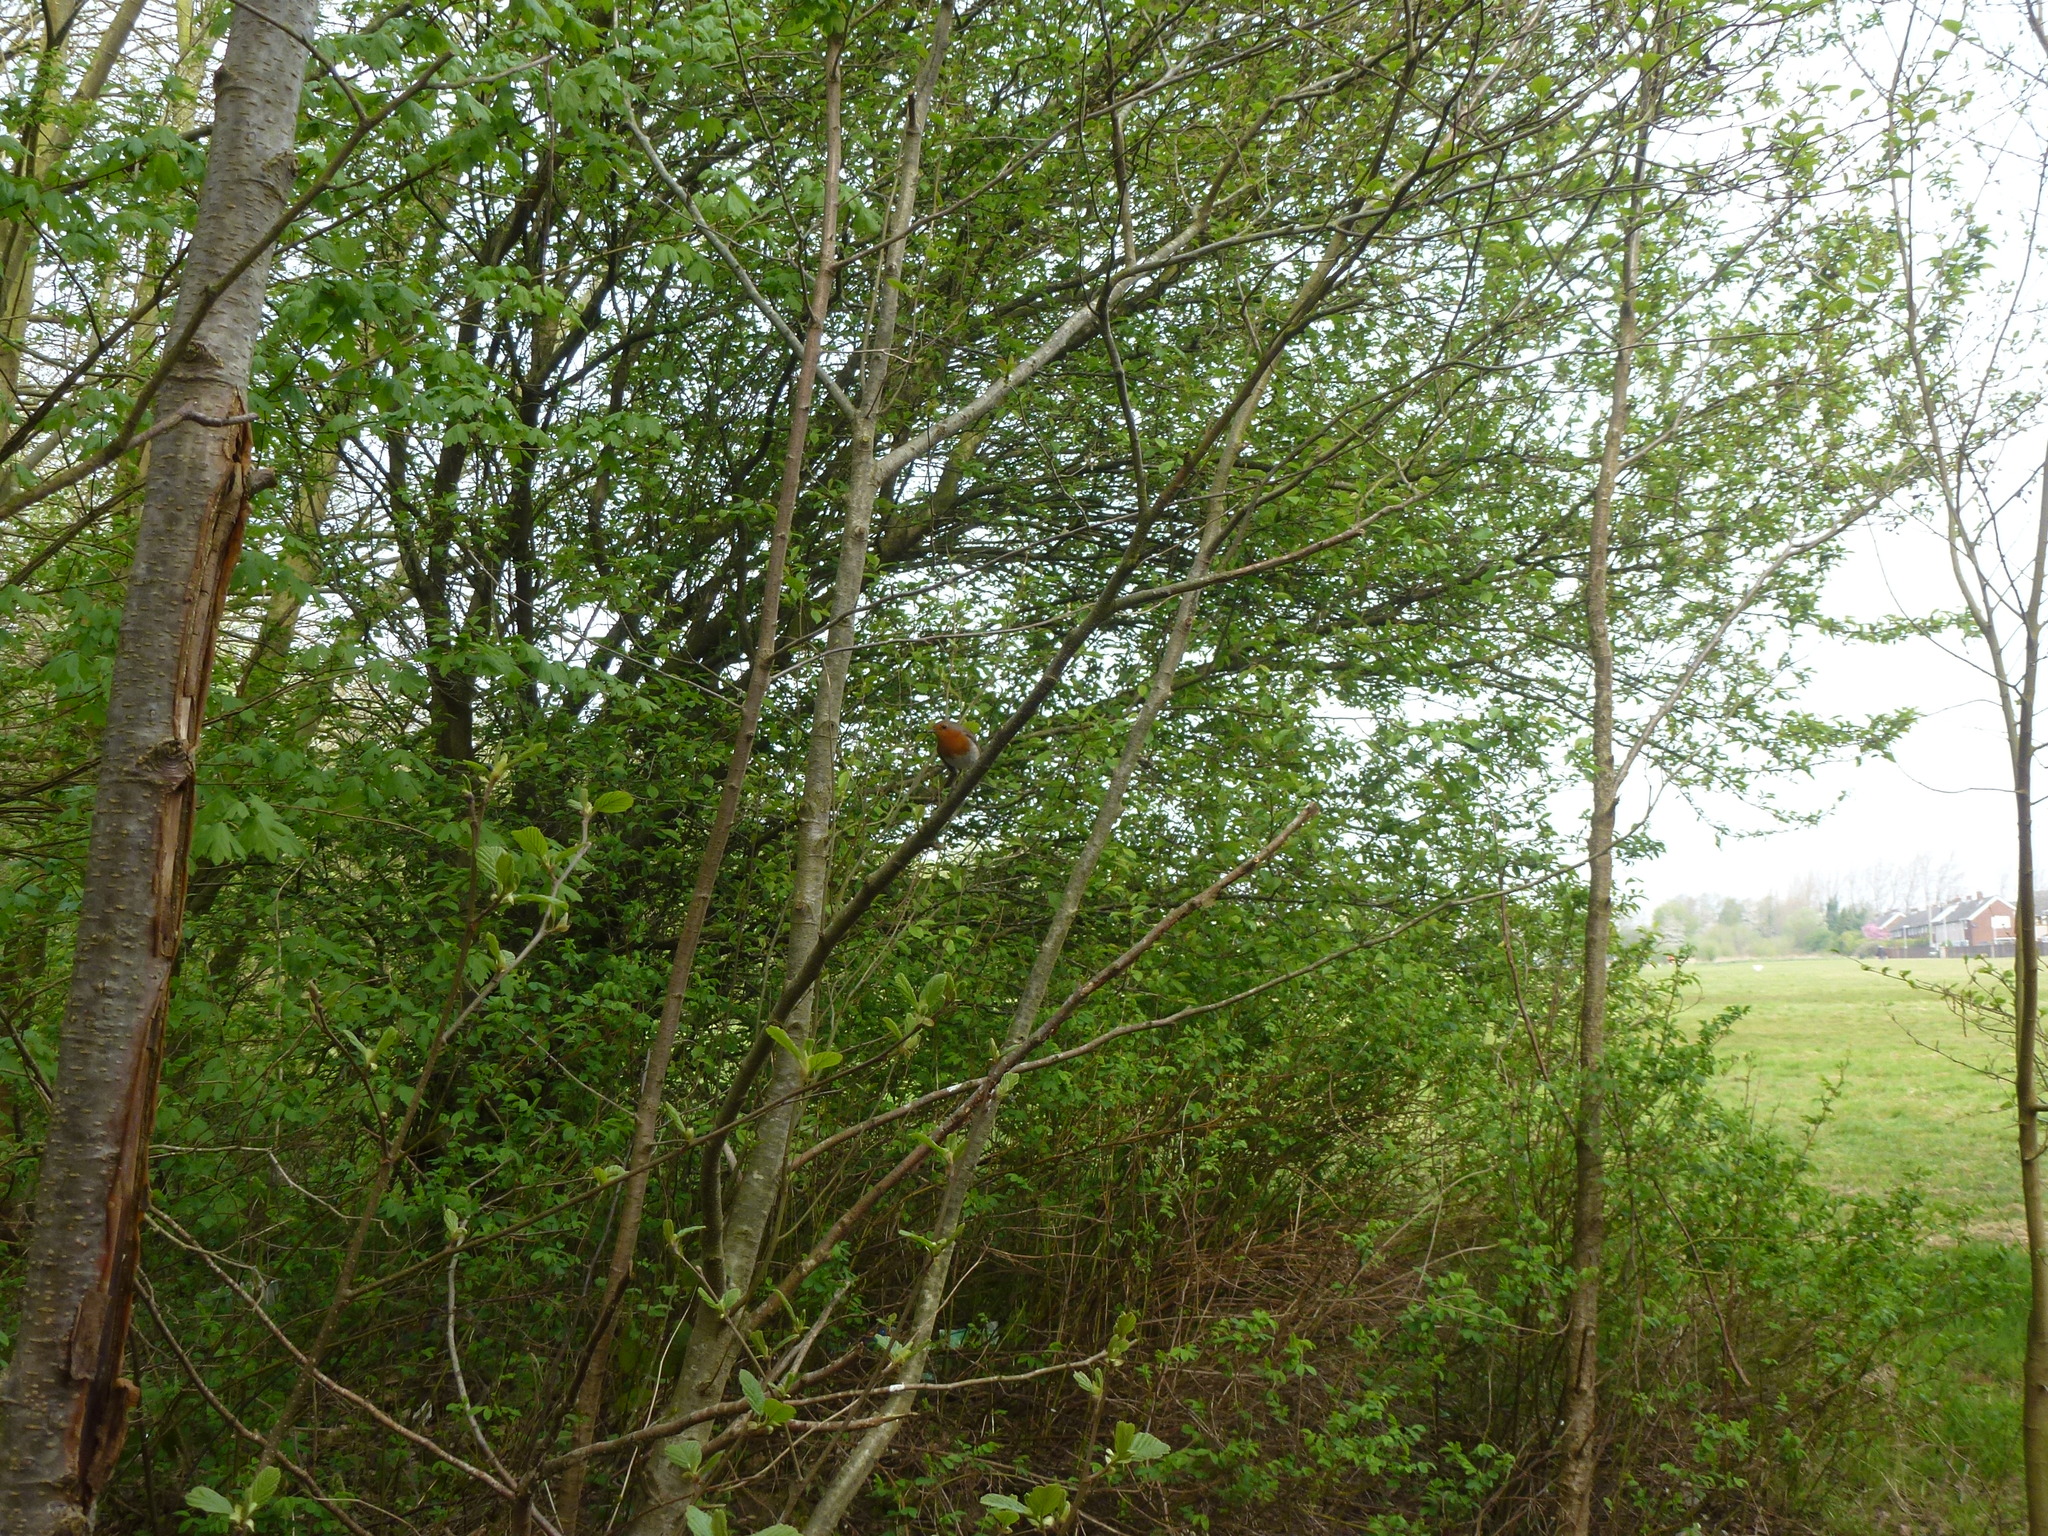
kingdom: Animalia
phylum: Chordata
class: Aves
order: Passeriformes
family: Muscicapidae
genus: Erithacus
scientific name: Erithacus rubecula
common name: European robin
